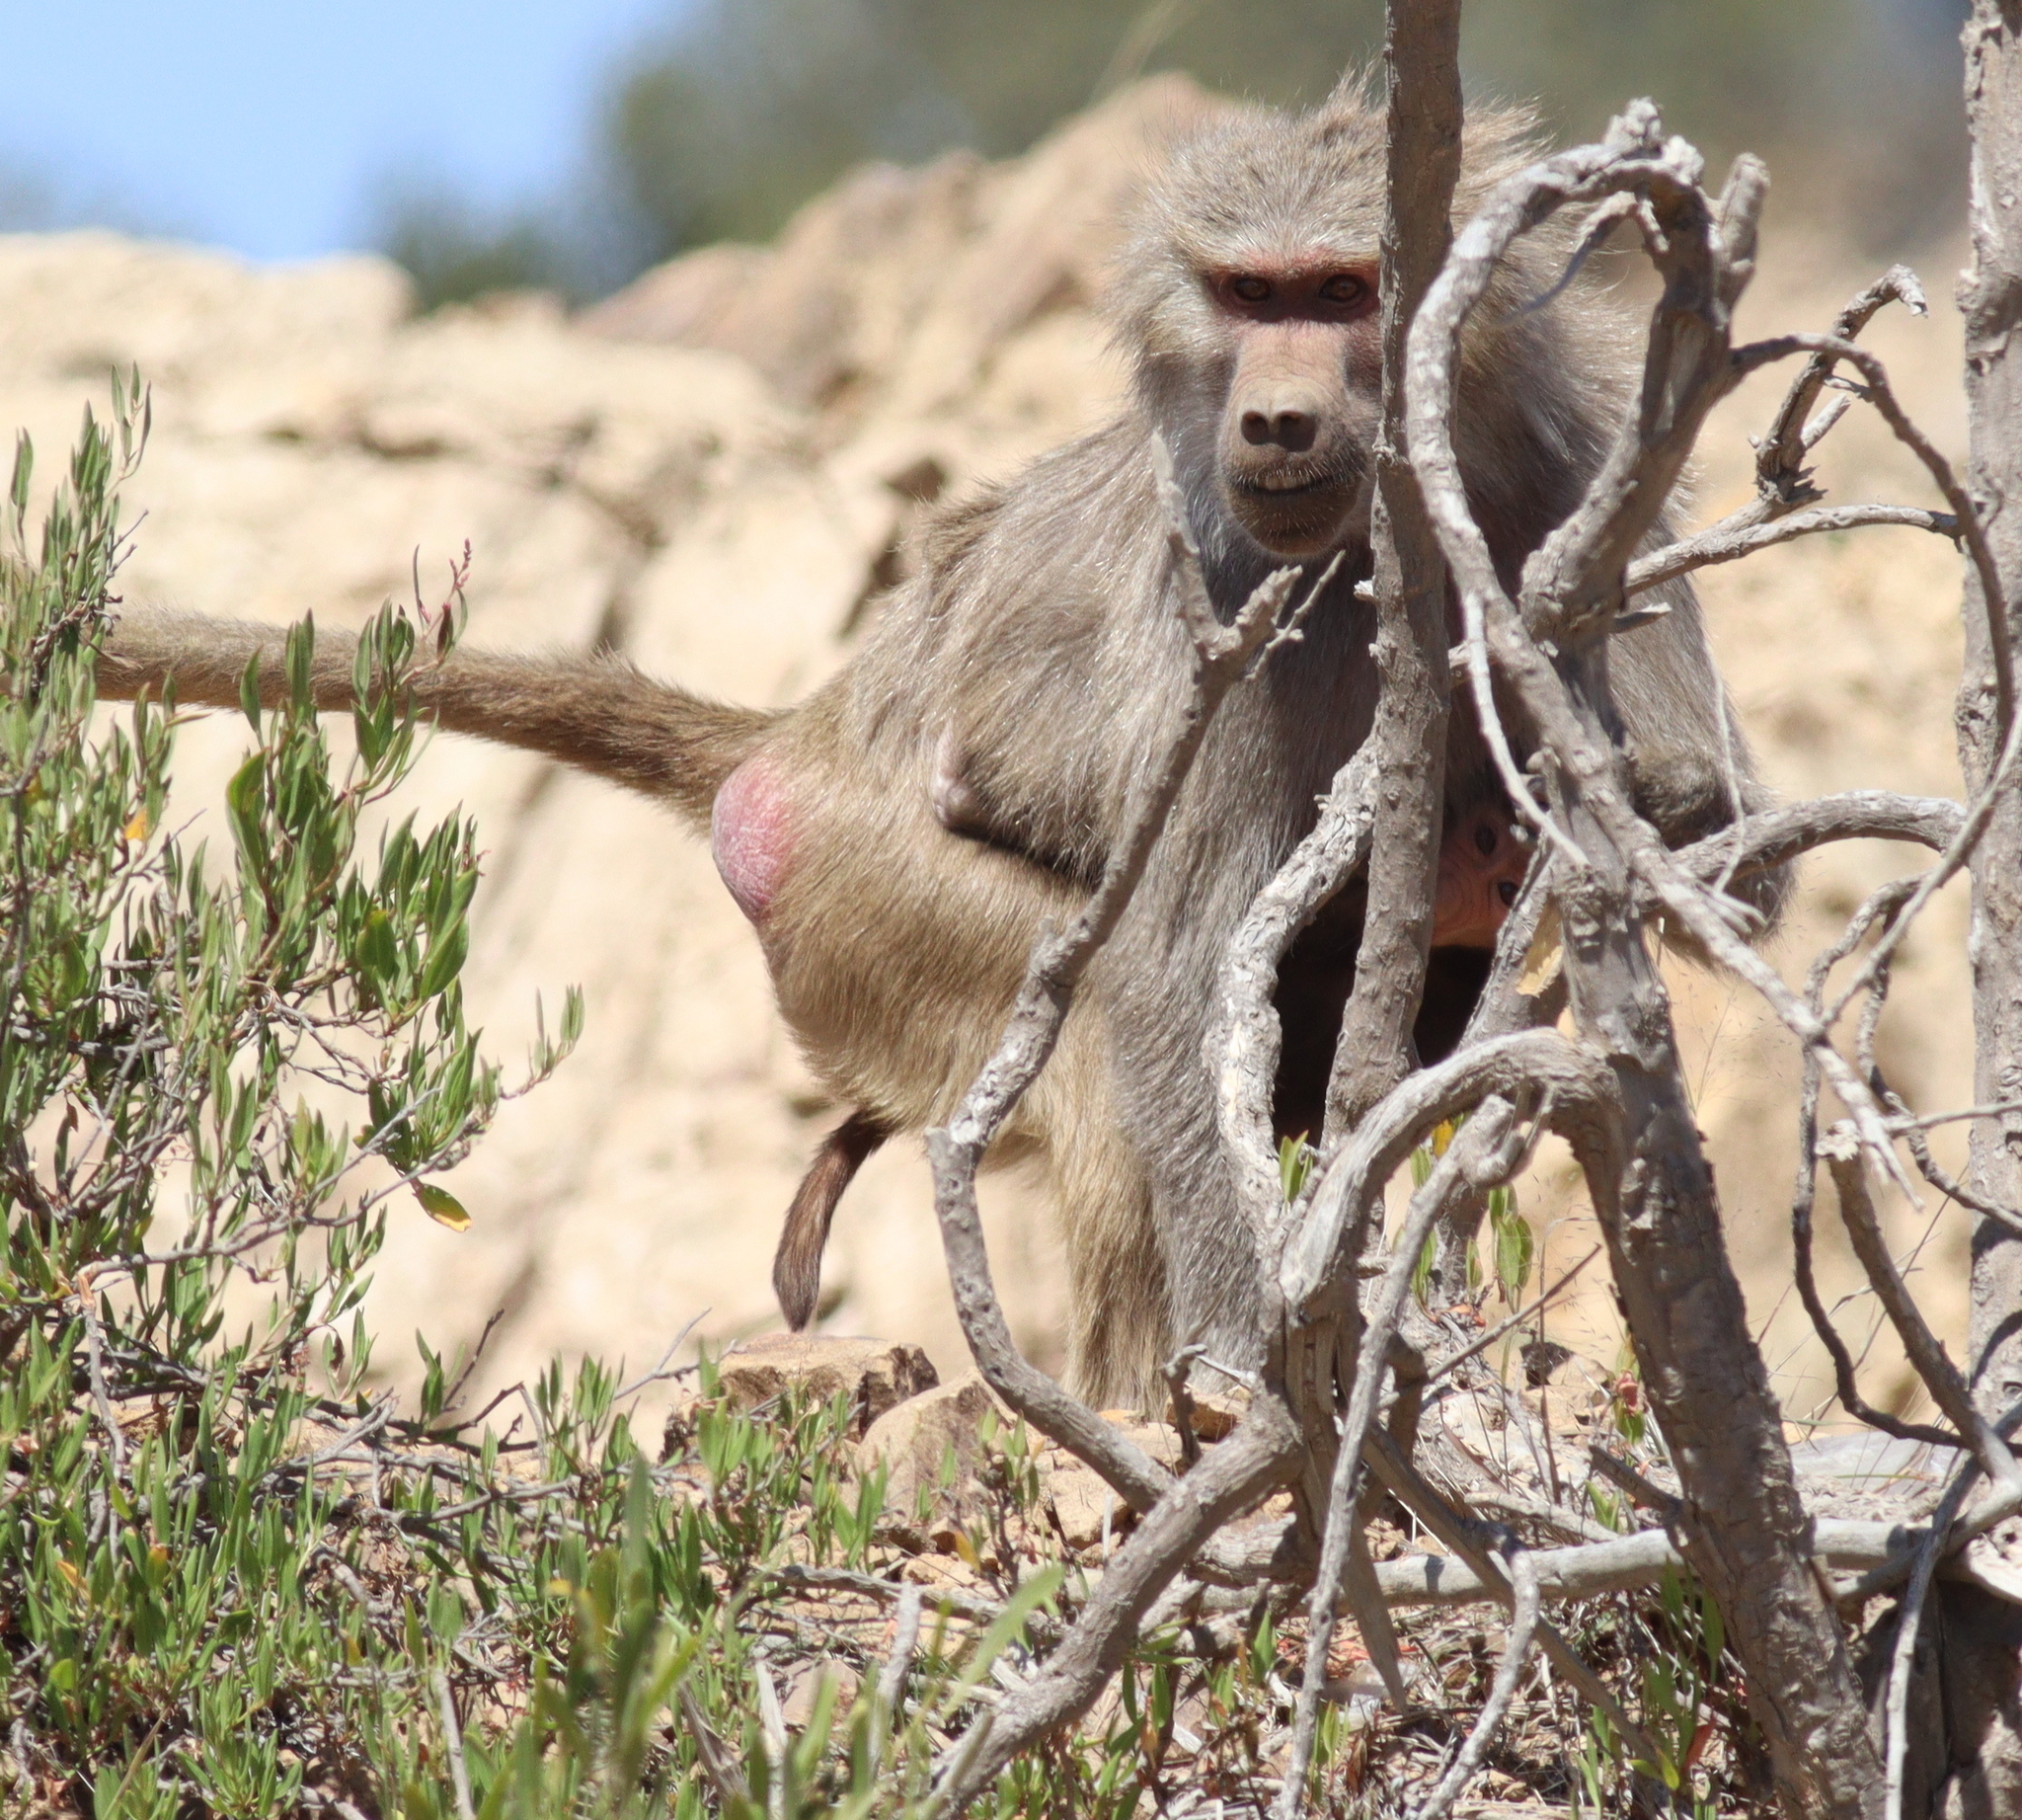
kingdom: Animalia
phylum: Chordata
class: Mammalia
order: Primates
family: Cercopithecidae
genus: Papio
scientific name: Papio hamadryas
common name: Hamadryas baboon
